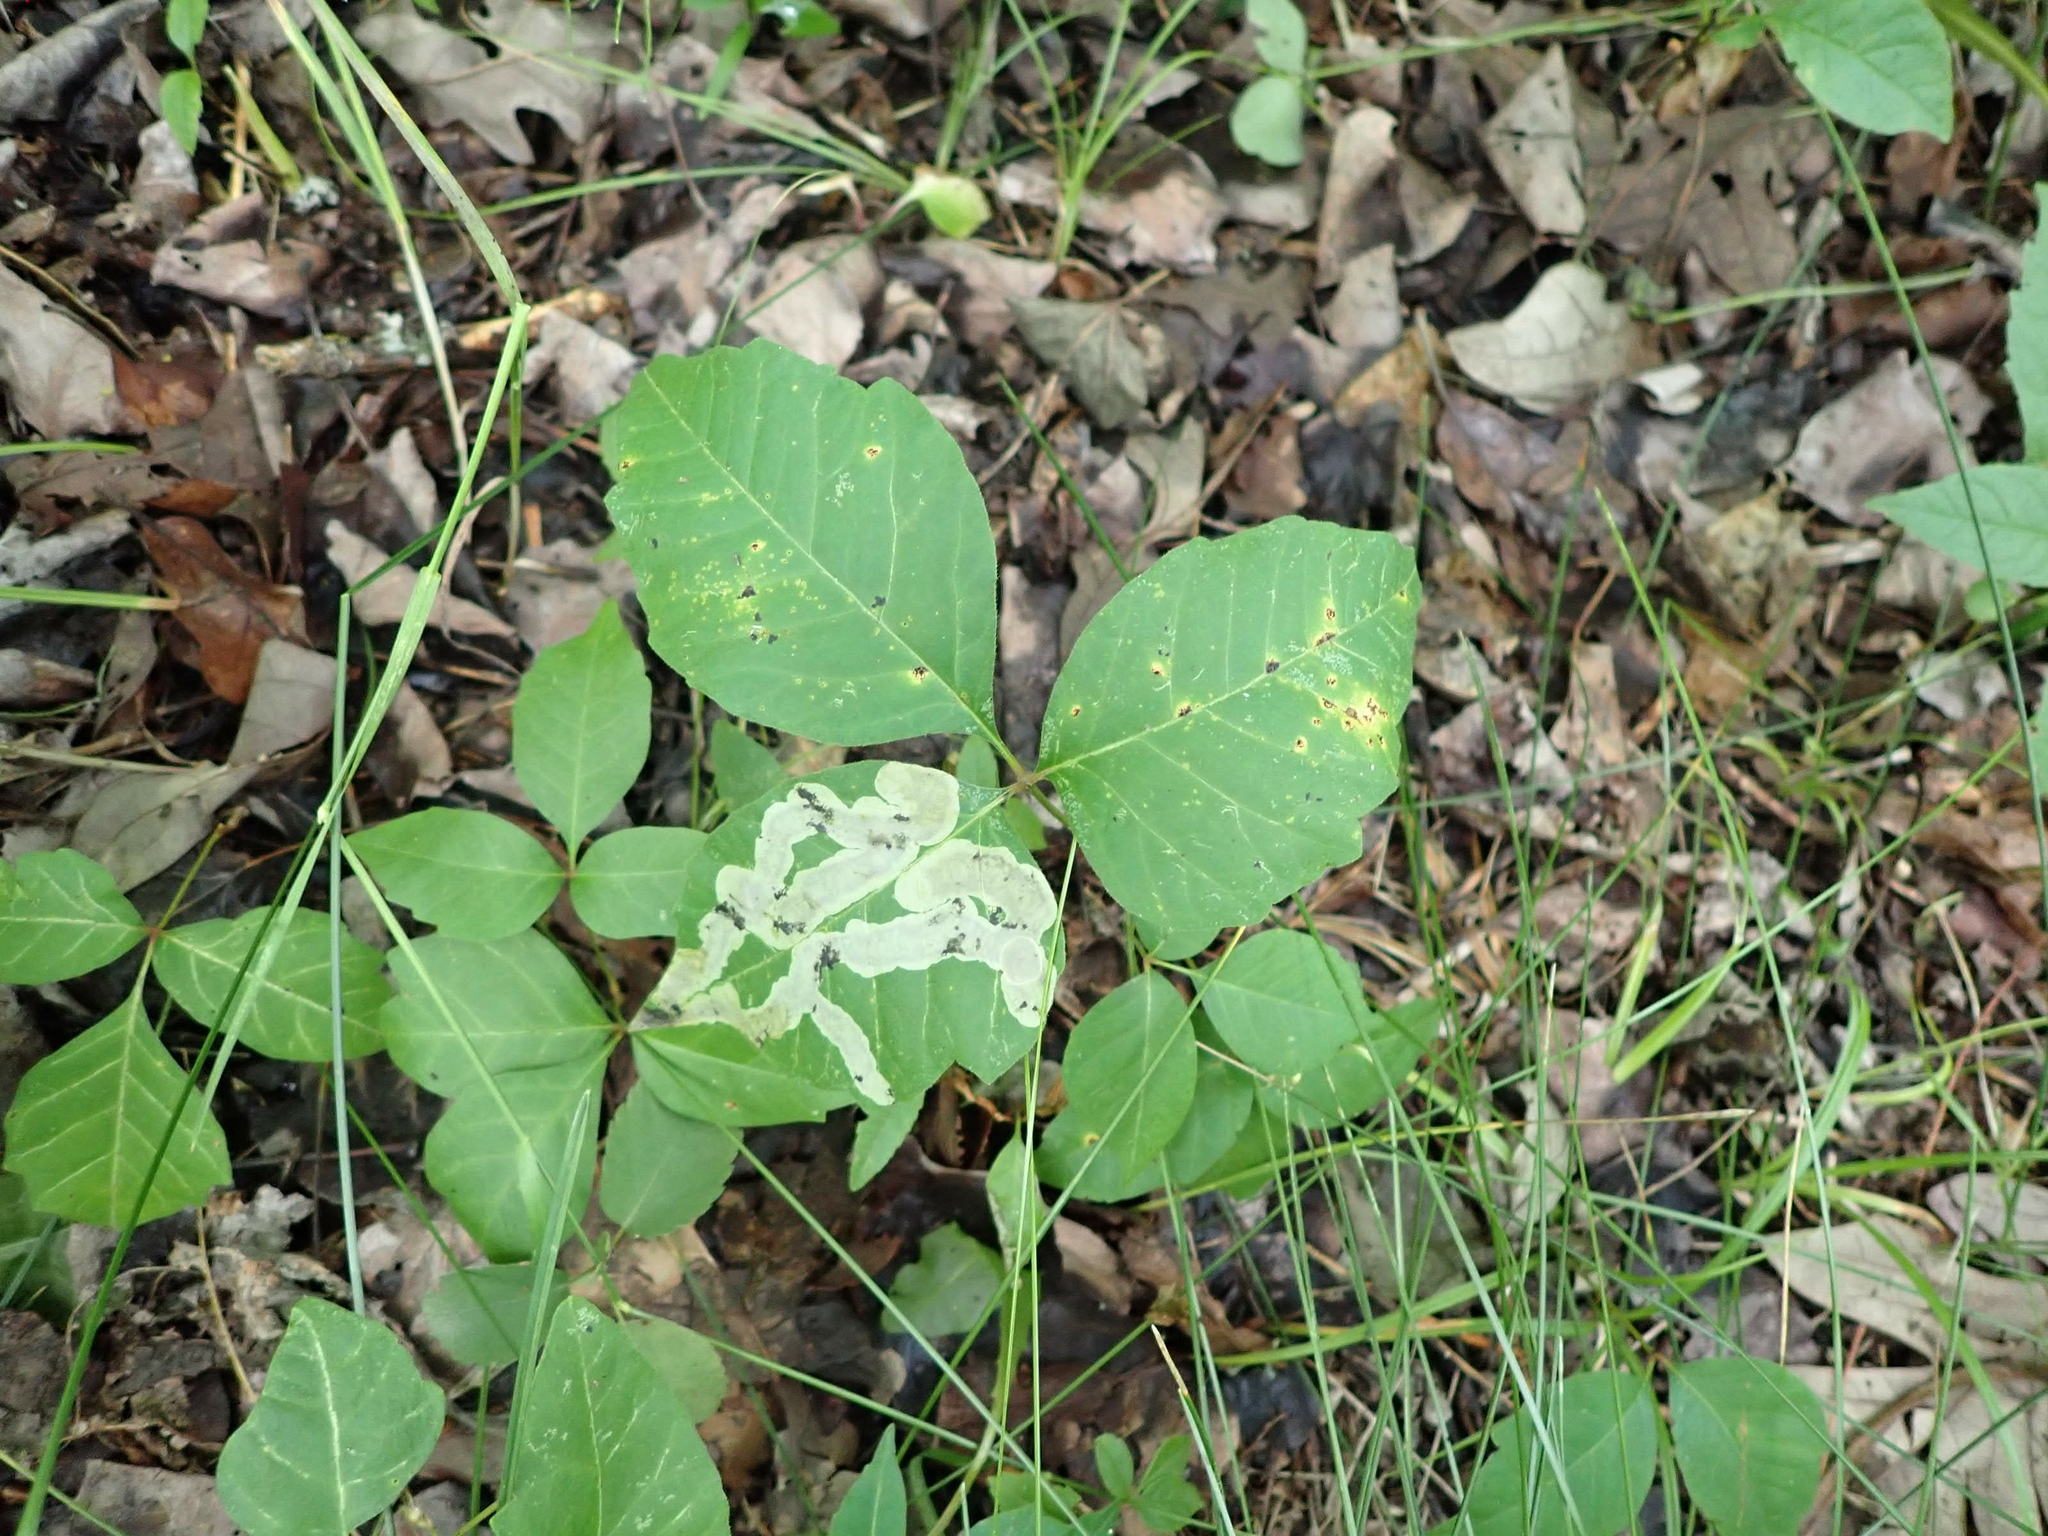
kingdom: Plantae
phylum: Tracheophyta
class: Magnoliopsida
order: Sapindales
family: Anacardiaceae
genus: Toxicodendron
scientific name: Toxicodendron rydbergii
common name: Rydberg's poison-ivy
